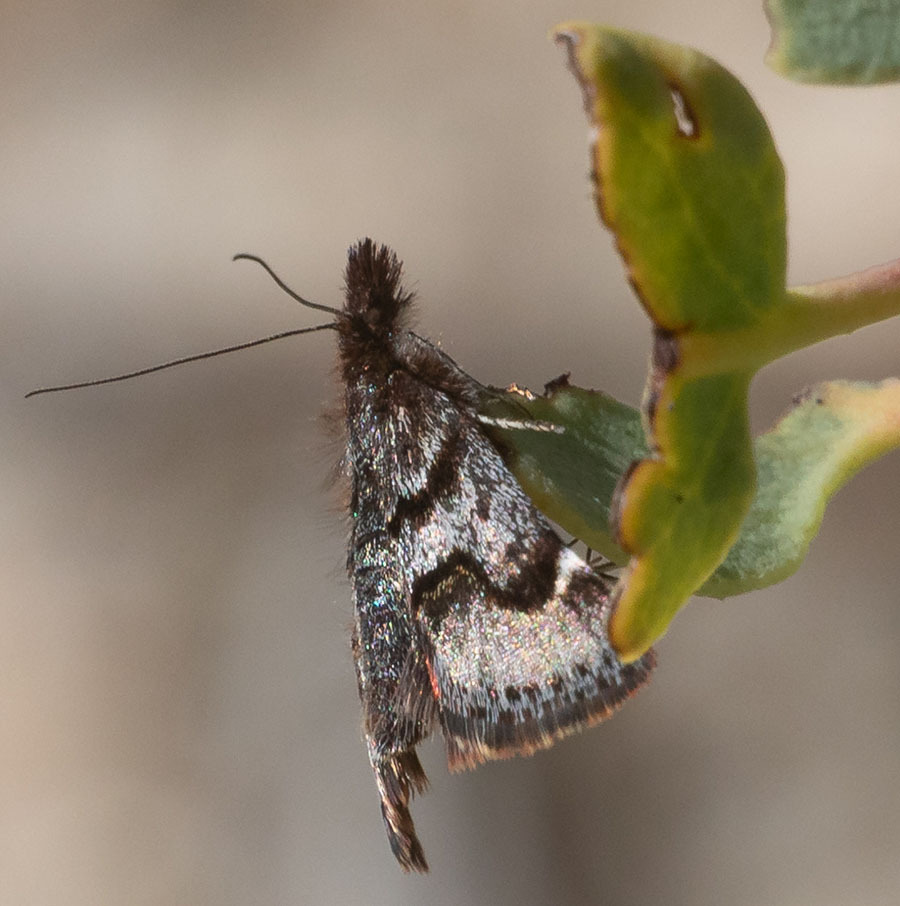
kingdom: Animalia
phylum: Arthropoda
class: Insecta
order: Lepidoptera
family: Crambidae
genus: Pyrausta
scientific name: Pyrausta dapalis
